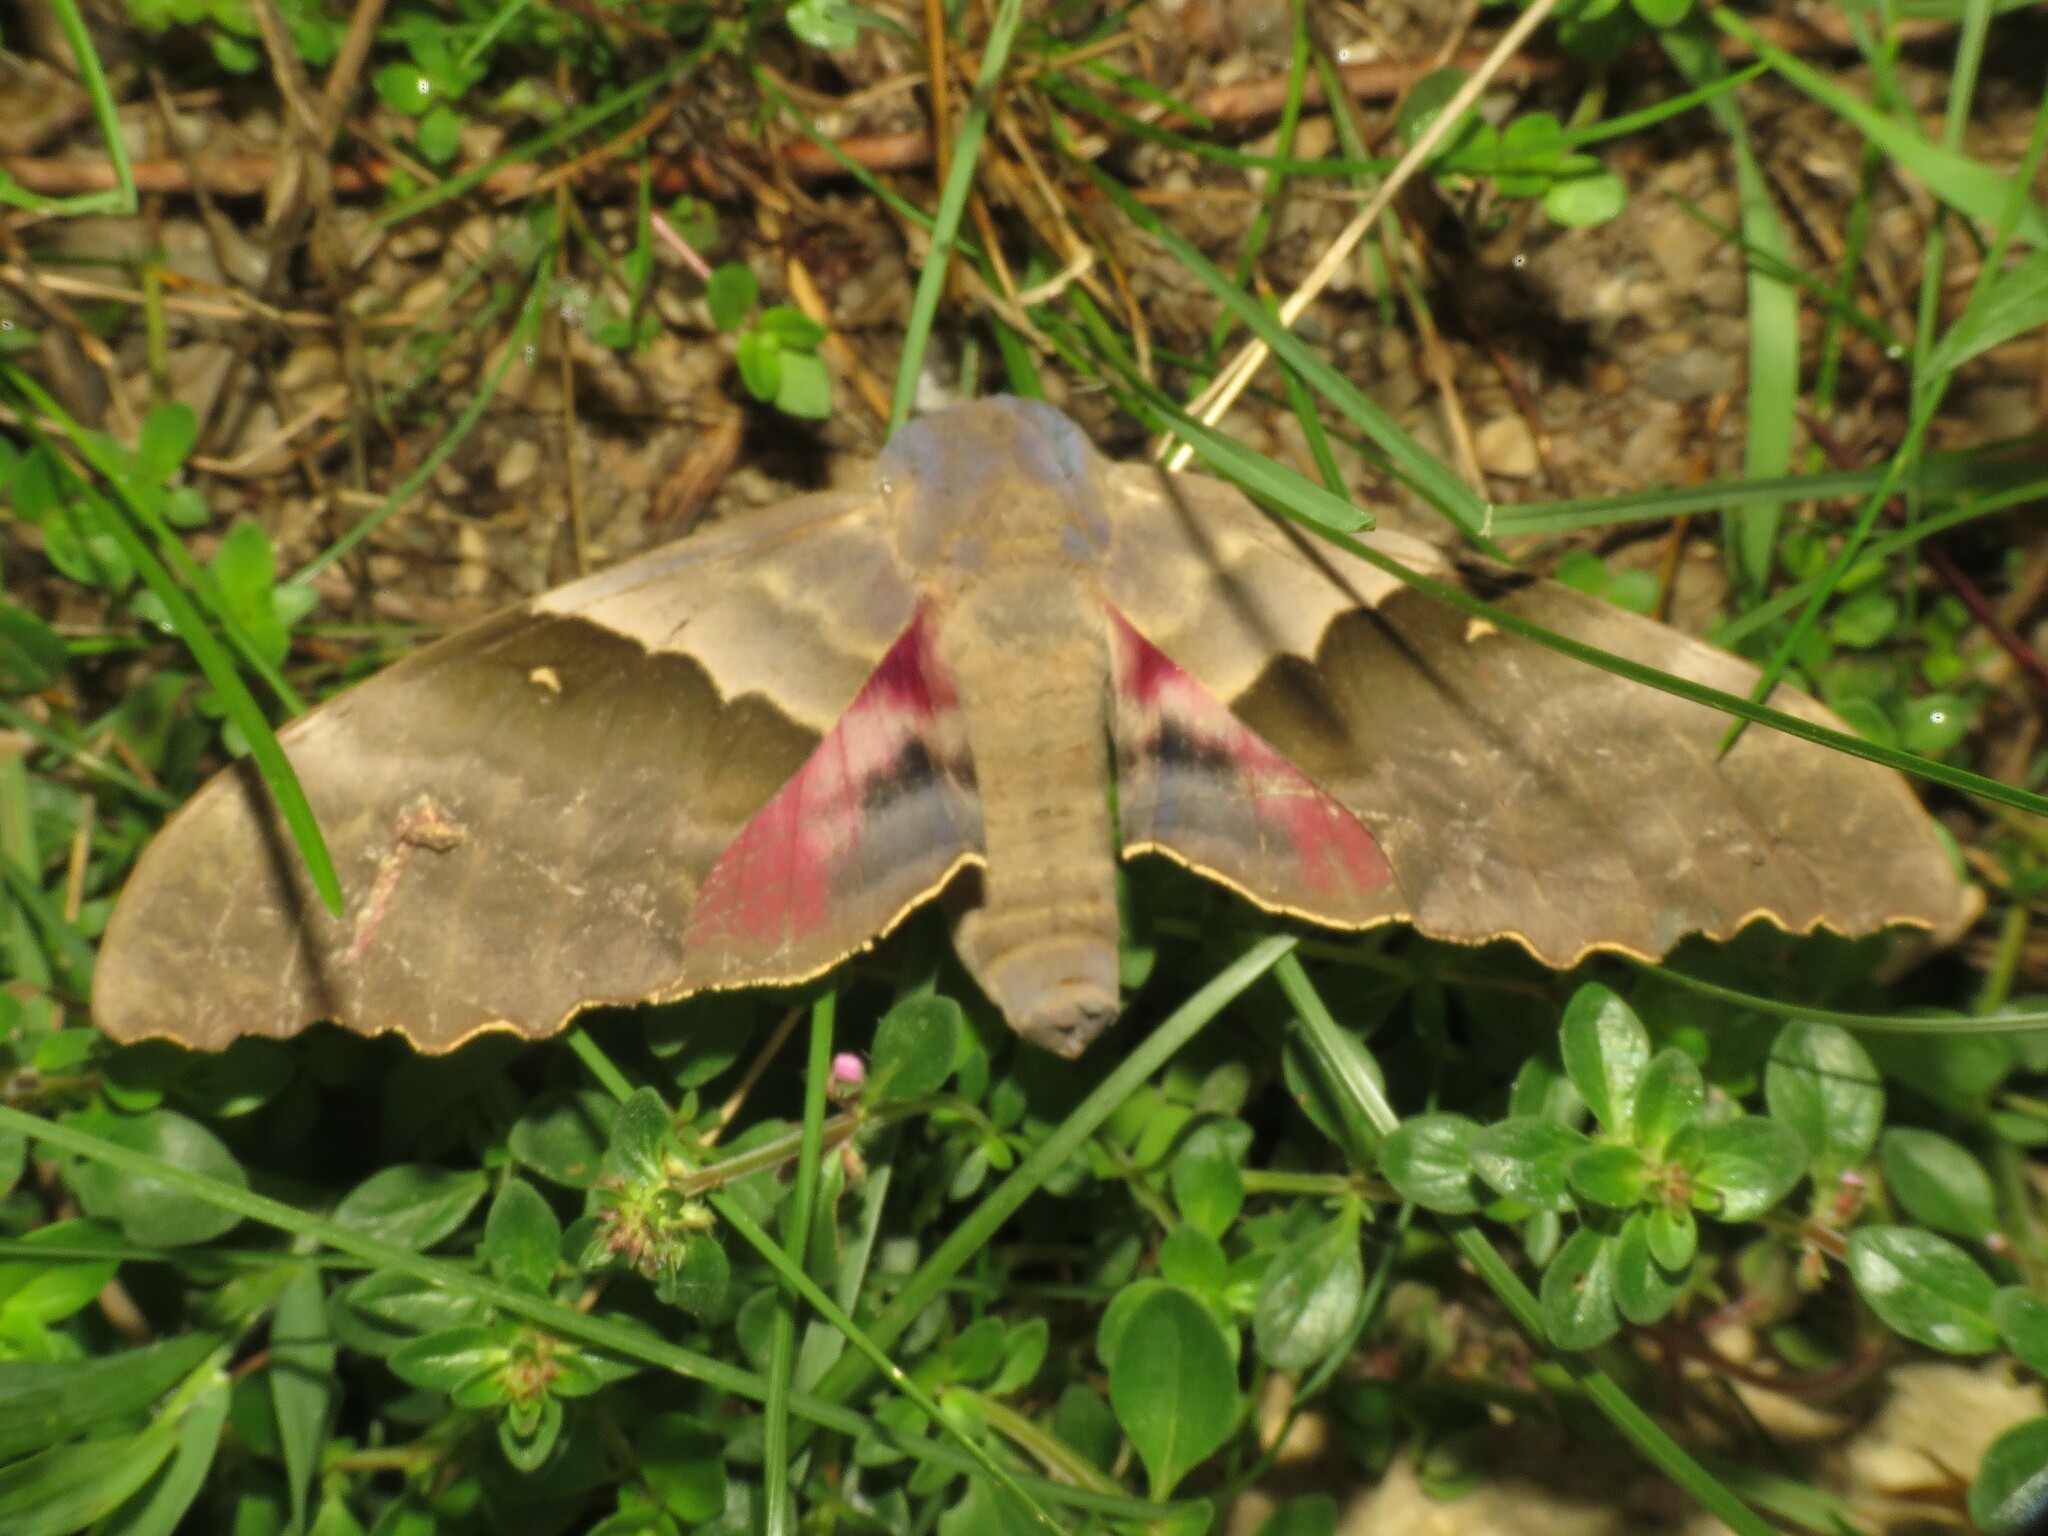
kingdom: Animalia
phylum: Arthropoda
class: Insecta
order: Lepidoptera
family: Sphingidae
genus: Pachysphinx
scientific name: Pachysphinx modesta
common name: Big poplar sphinx
